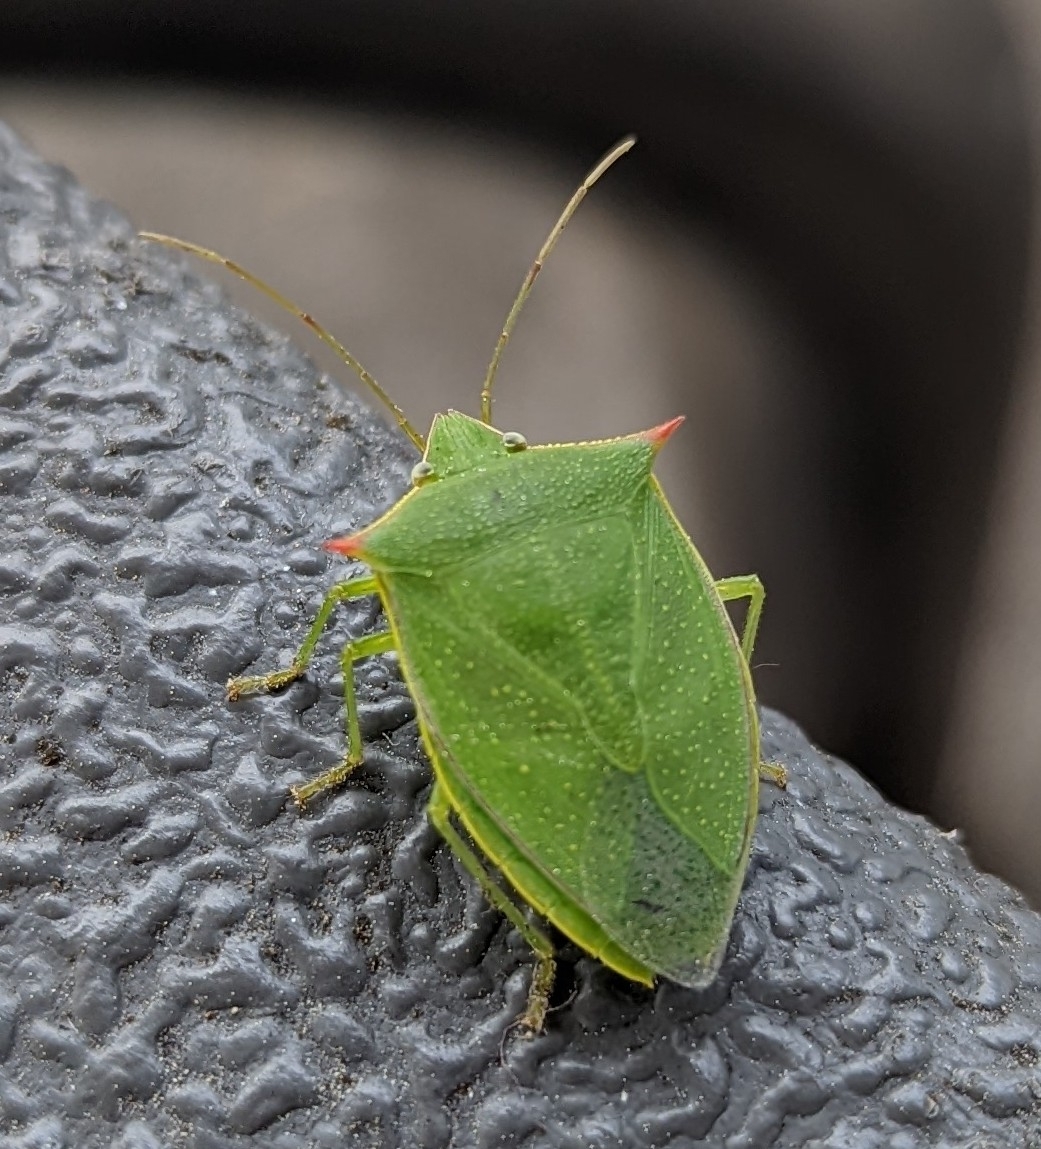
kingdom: Animalia
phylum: Arthropoda
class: Insecta
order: Hemiptera
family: Pentatomidae
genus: Loxa
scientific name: Loxa flavicollis
